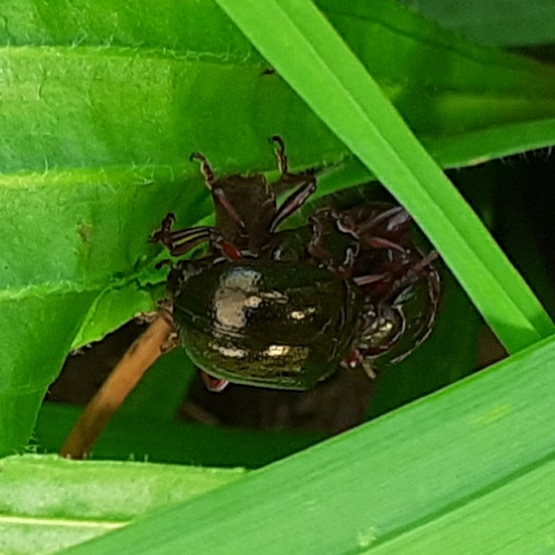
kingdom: Animalia
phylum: Arthropoda
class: Insecta
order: Coleoptera
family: Chrysomelidae
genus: Chrysolina
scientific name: Chrysolina bankii
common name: Leaf beetle
